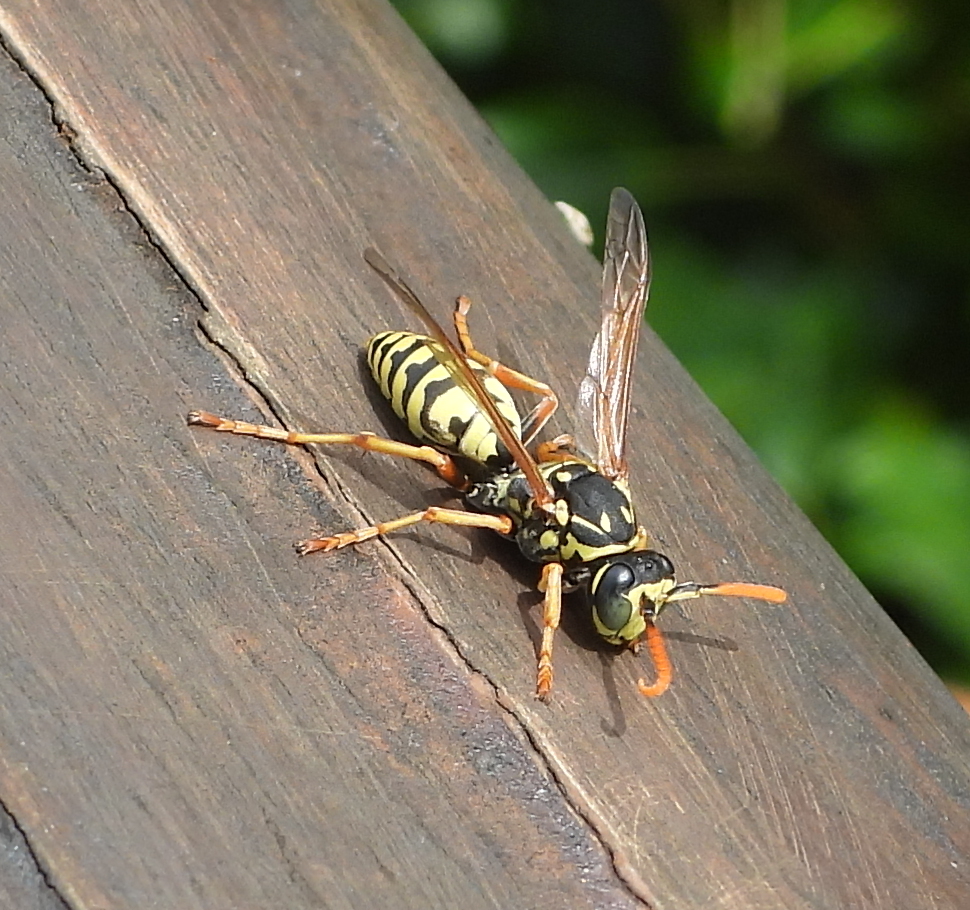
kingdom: Animalia
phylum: Arthropoda
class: Insecta
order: Hymenoptera
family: Eumenidae
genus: Polistes
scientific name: Polistes dominula
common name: Paper wasp
